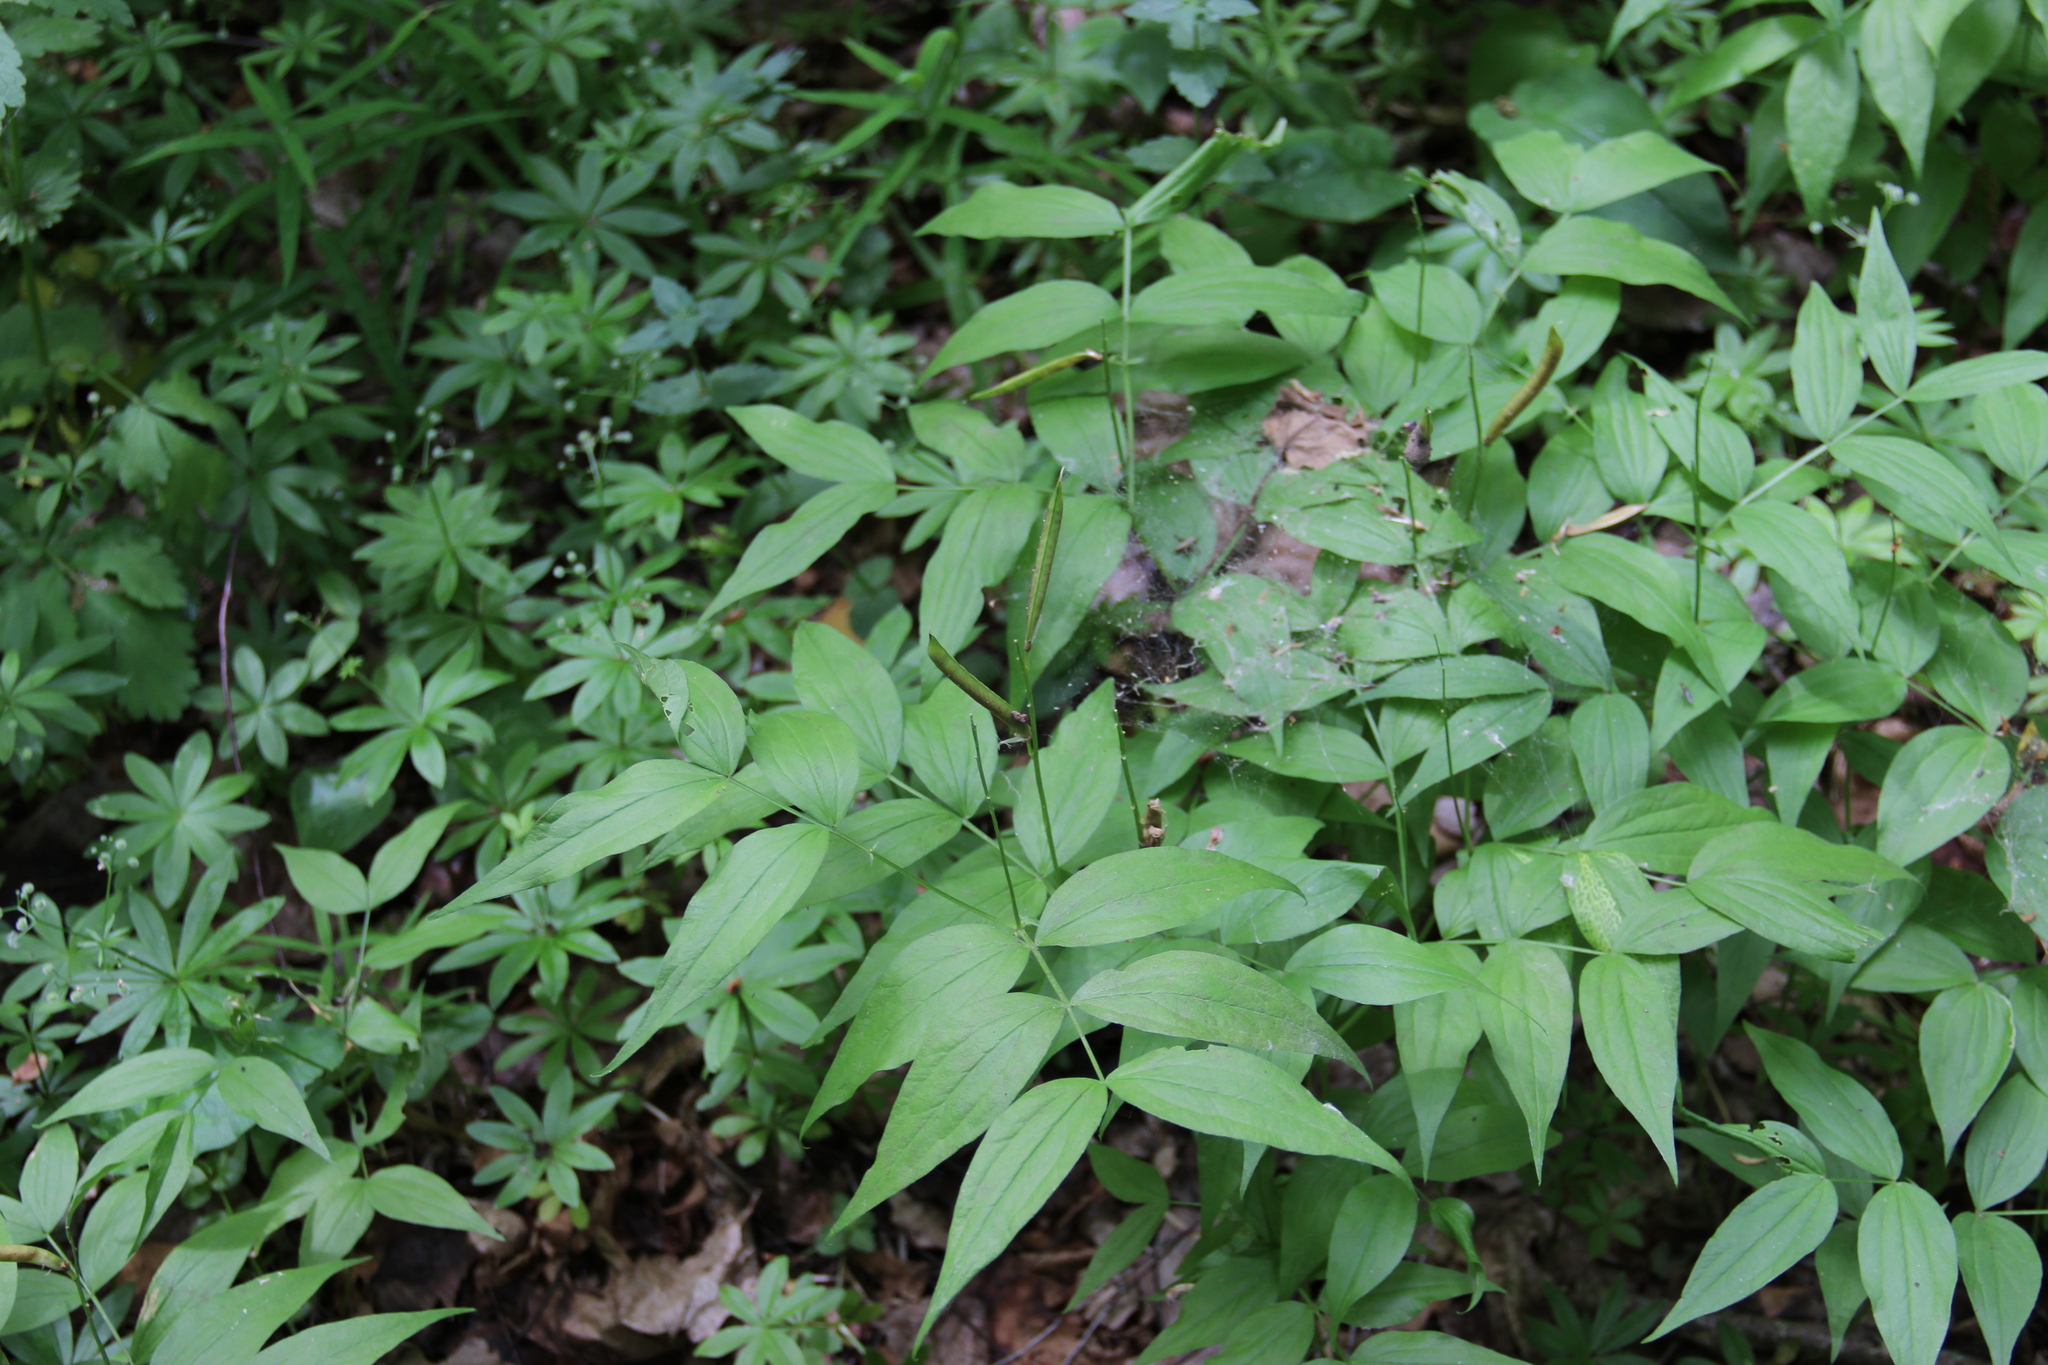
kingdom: Plantae
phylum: Tracheophyta
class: Magnoliopsida
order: Fabales
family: Fabaceae
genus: Lathyrus
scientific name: Lathyrus vernus
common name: Spring pea
